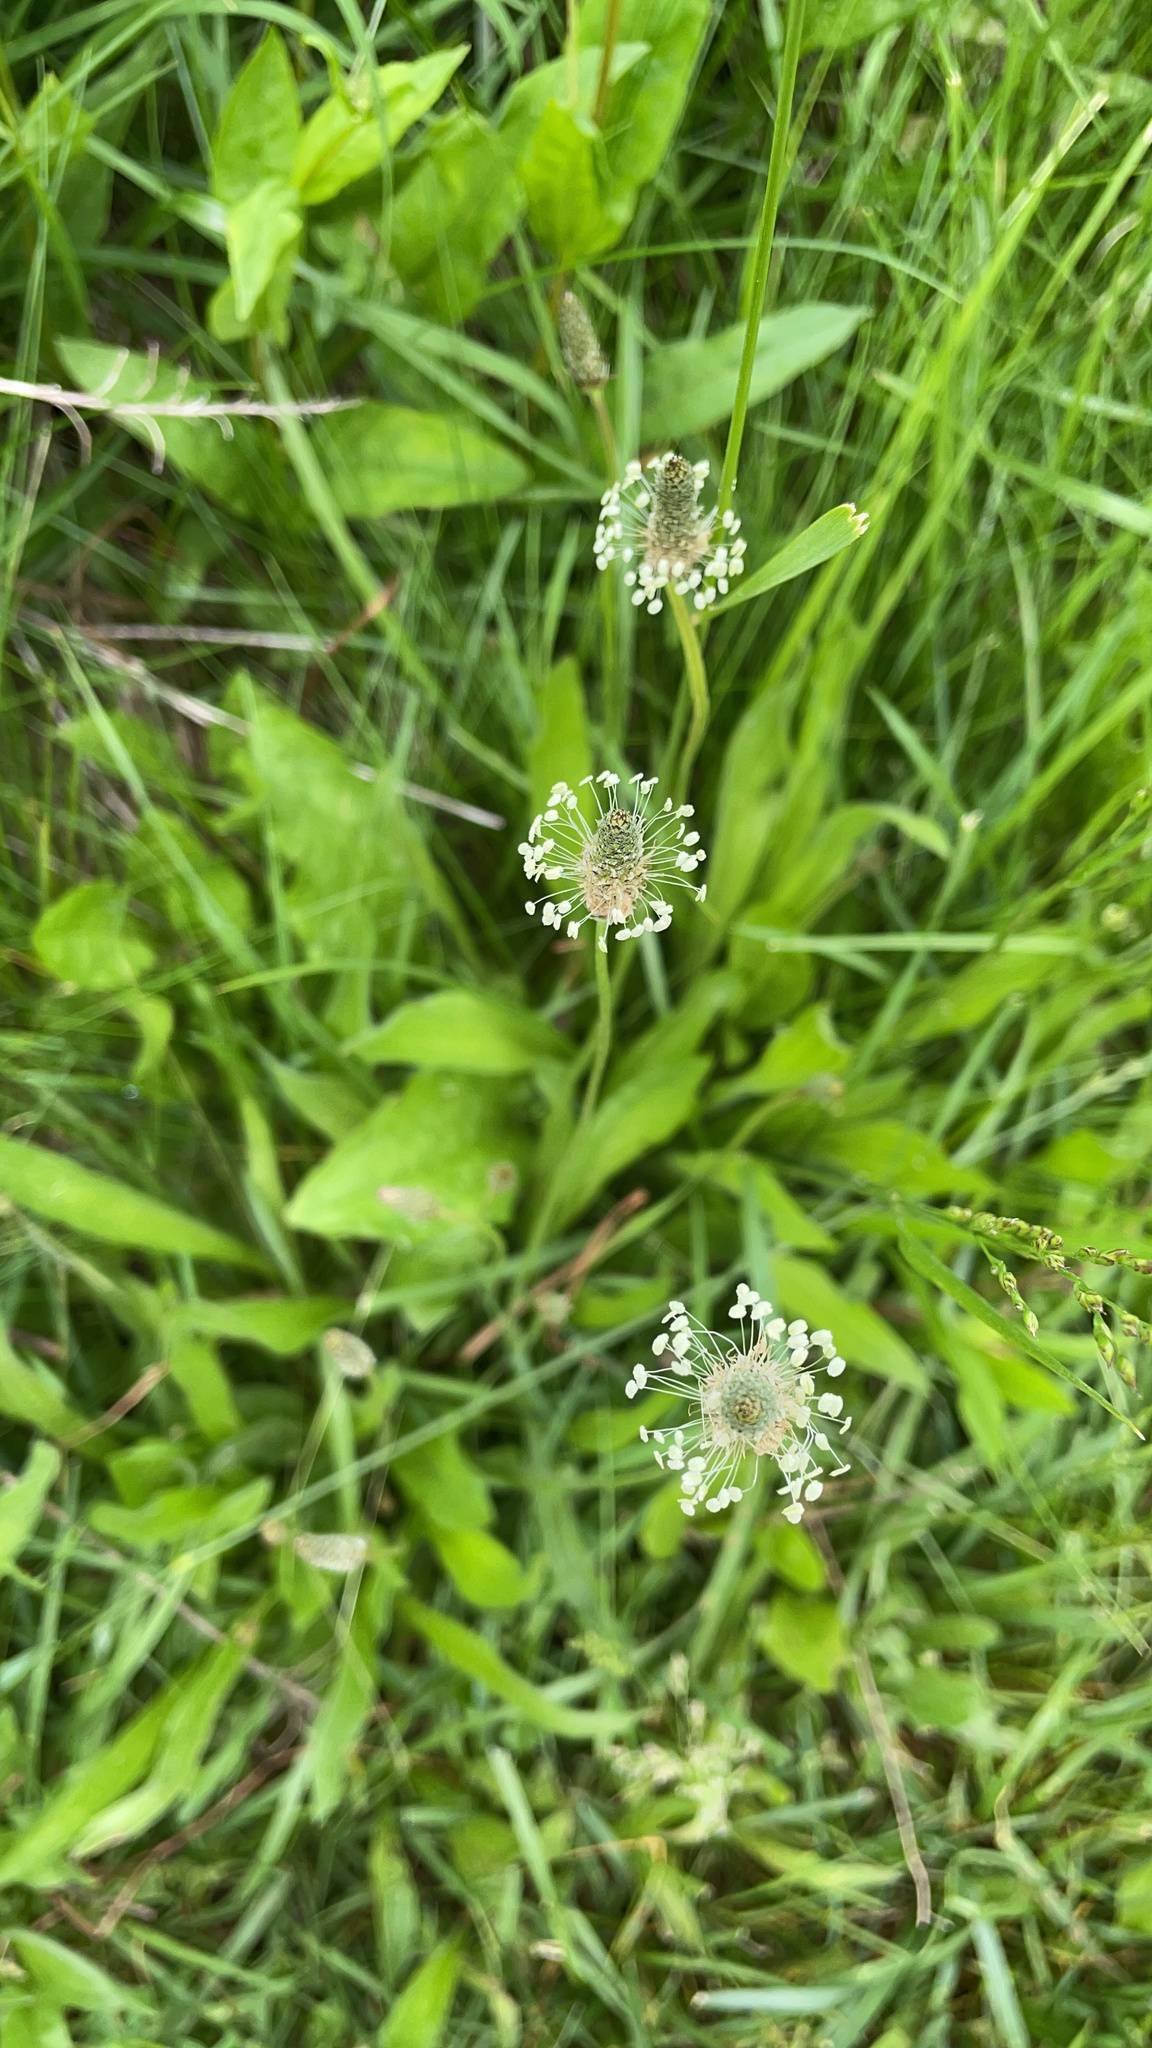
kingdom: Plantae
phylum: Tracheophyta
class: Magnoliopsida
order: Lamiales
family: Plantaginaceae
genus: Plantago
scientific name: Plantago lanceolata
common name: Ribwort plantain
